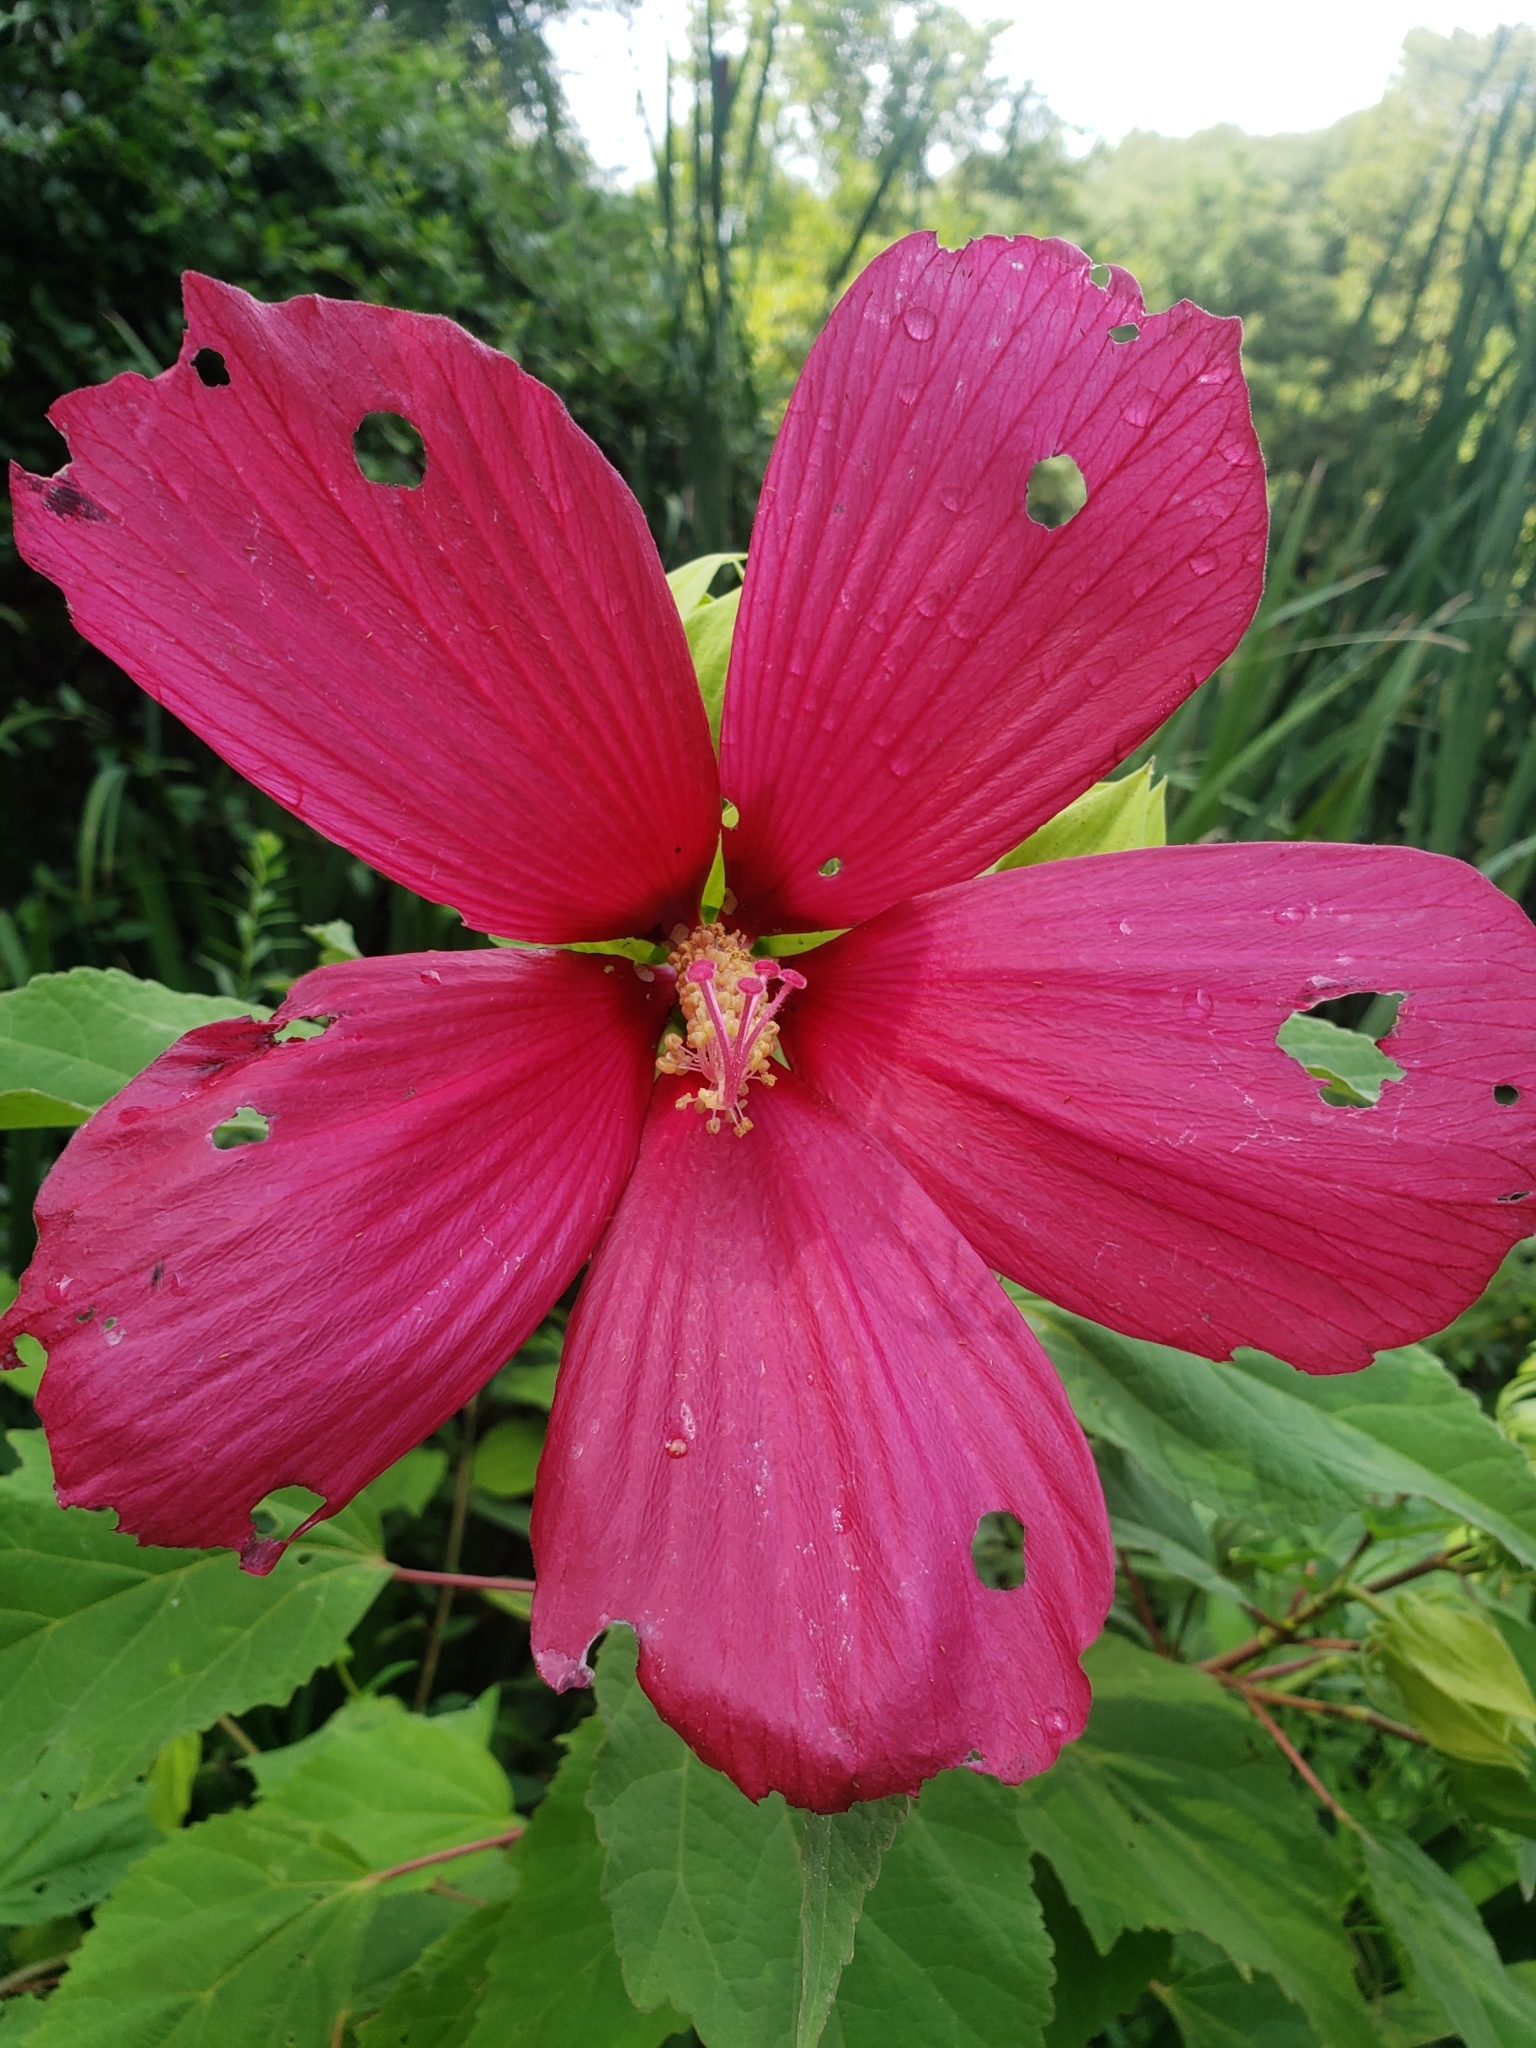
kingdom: Plantae
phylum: Tracheophyta
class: Magnoliopsida
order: Malvales
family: Malvaceae
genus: Hibiscus
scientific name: Hibiscus moscheutos
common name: Common rose-mallow
